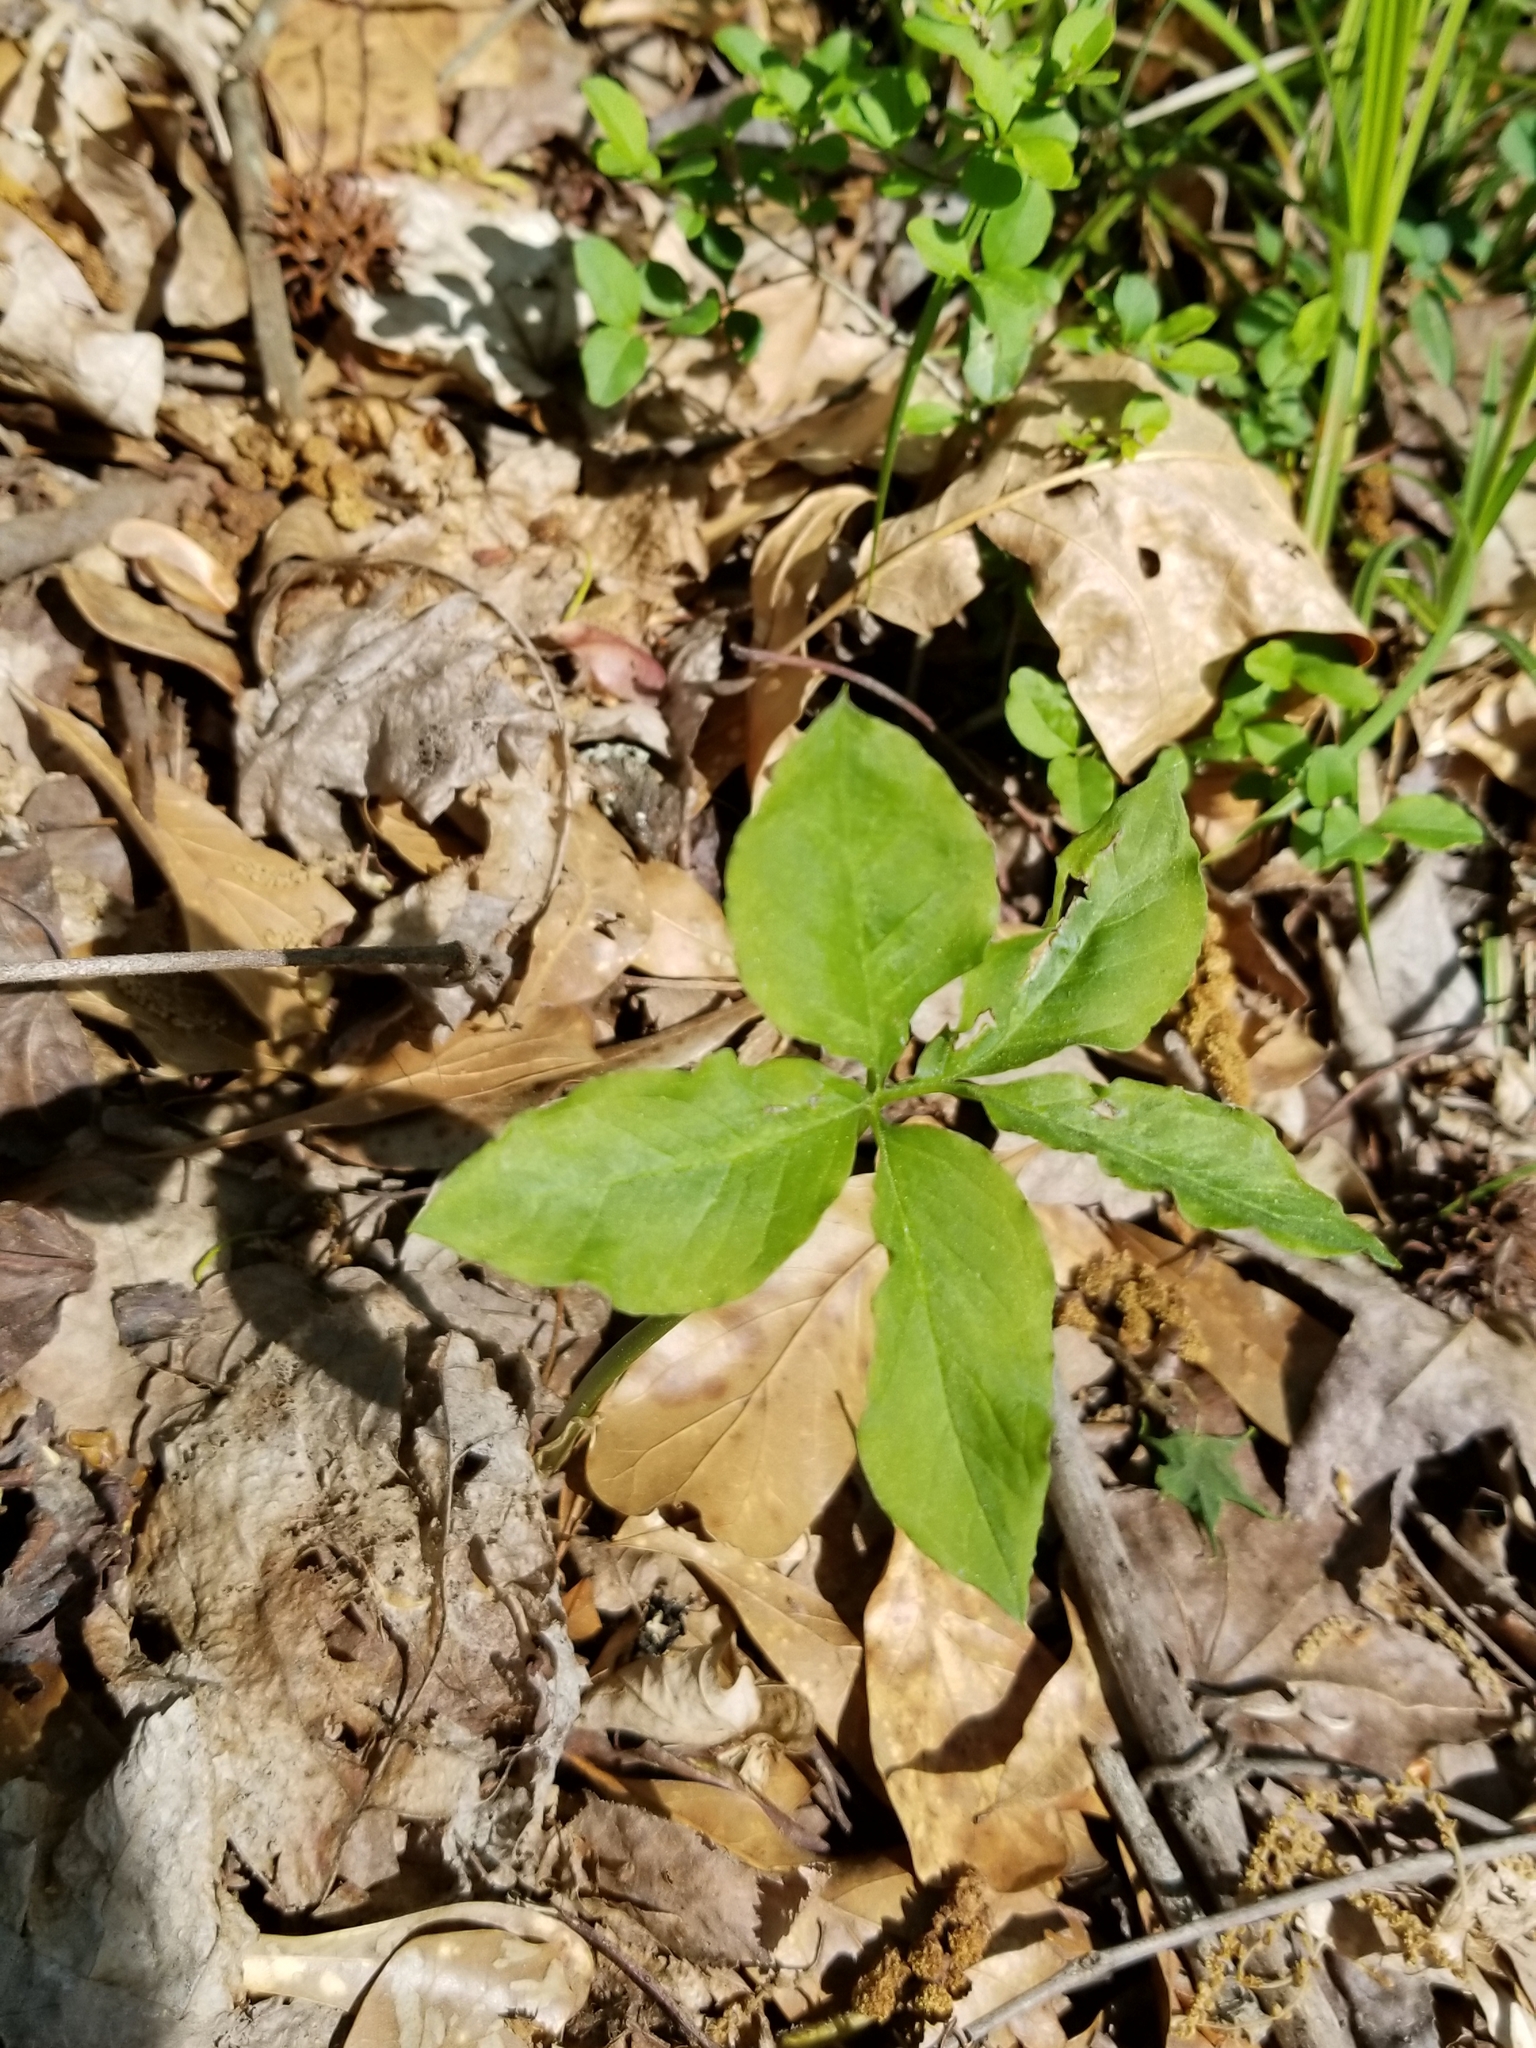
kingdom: Plantae
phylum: Tracheophyta
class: Liliopsida
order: Alismatales
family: Araceae
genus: Arisaema
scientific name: Arisaema dracontium
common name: Dragon-arum
